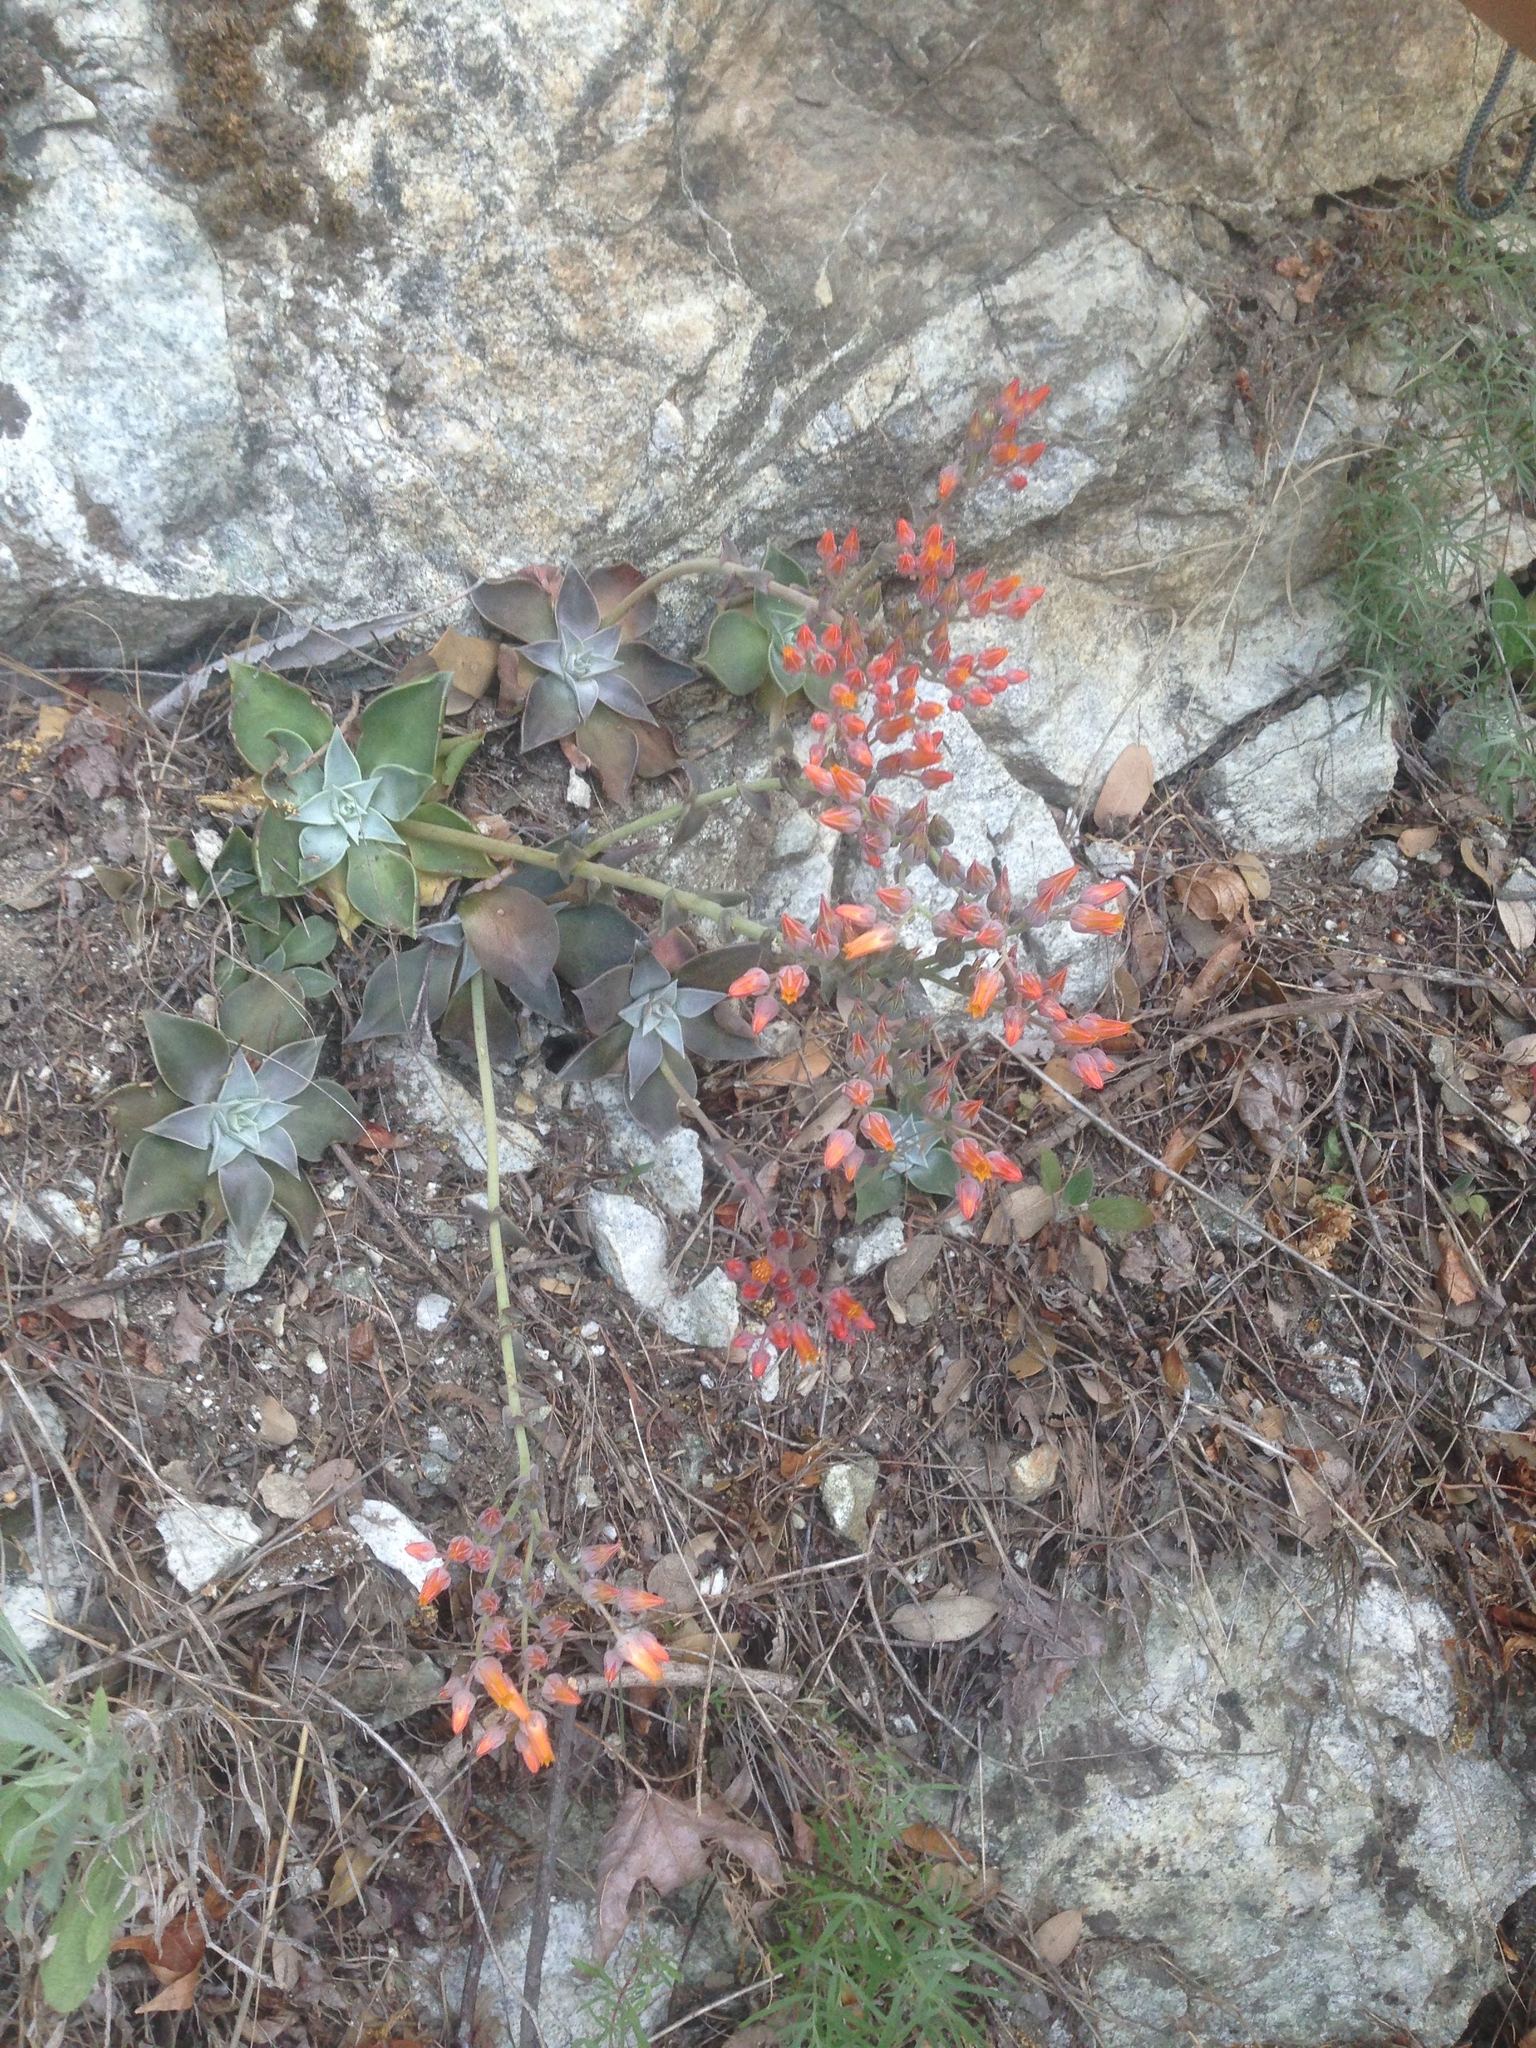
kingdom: Plantae
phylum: Tracheophyta
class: Magnoliopsida
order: Saxifragales
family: Crassulaceae
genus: Dudleya
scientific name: Dudleya cymosa
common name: Canyon dudleya
